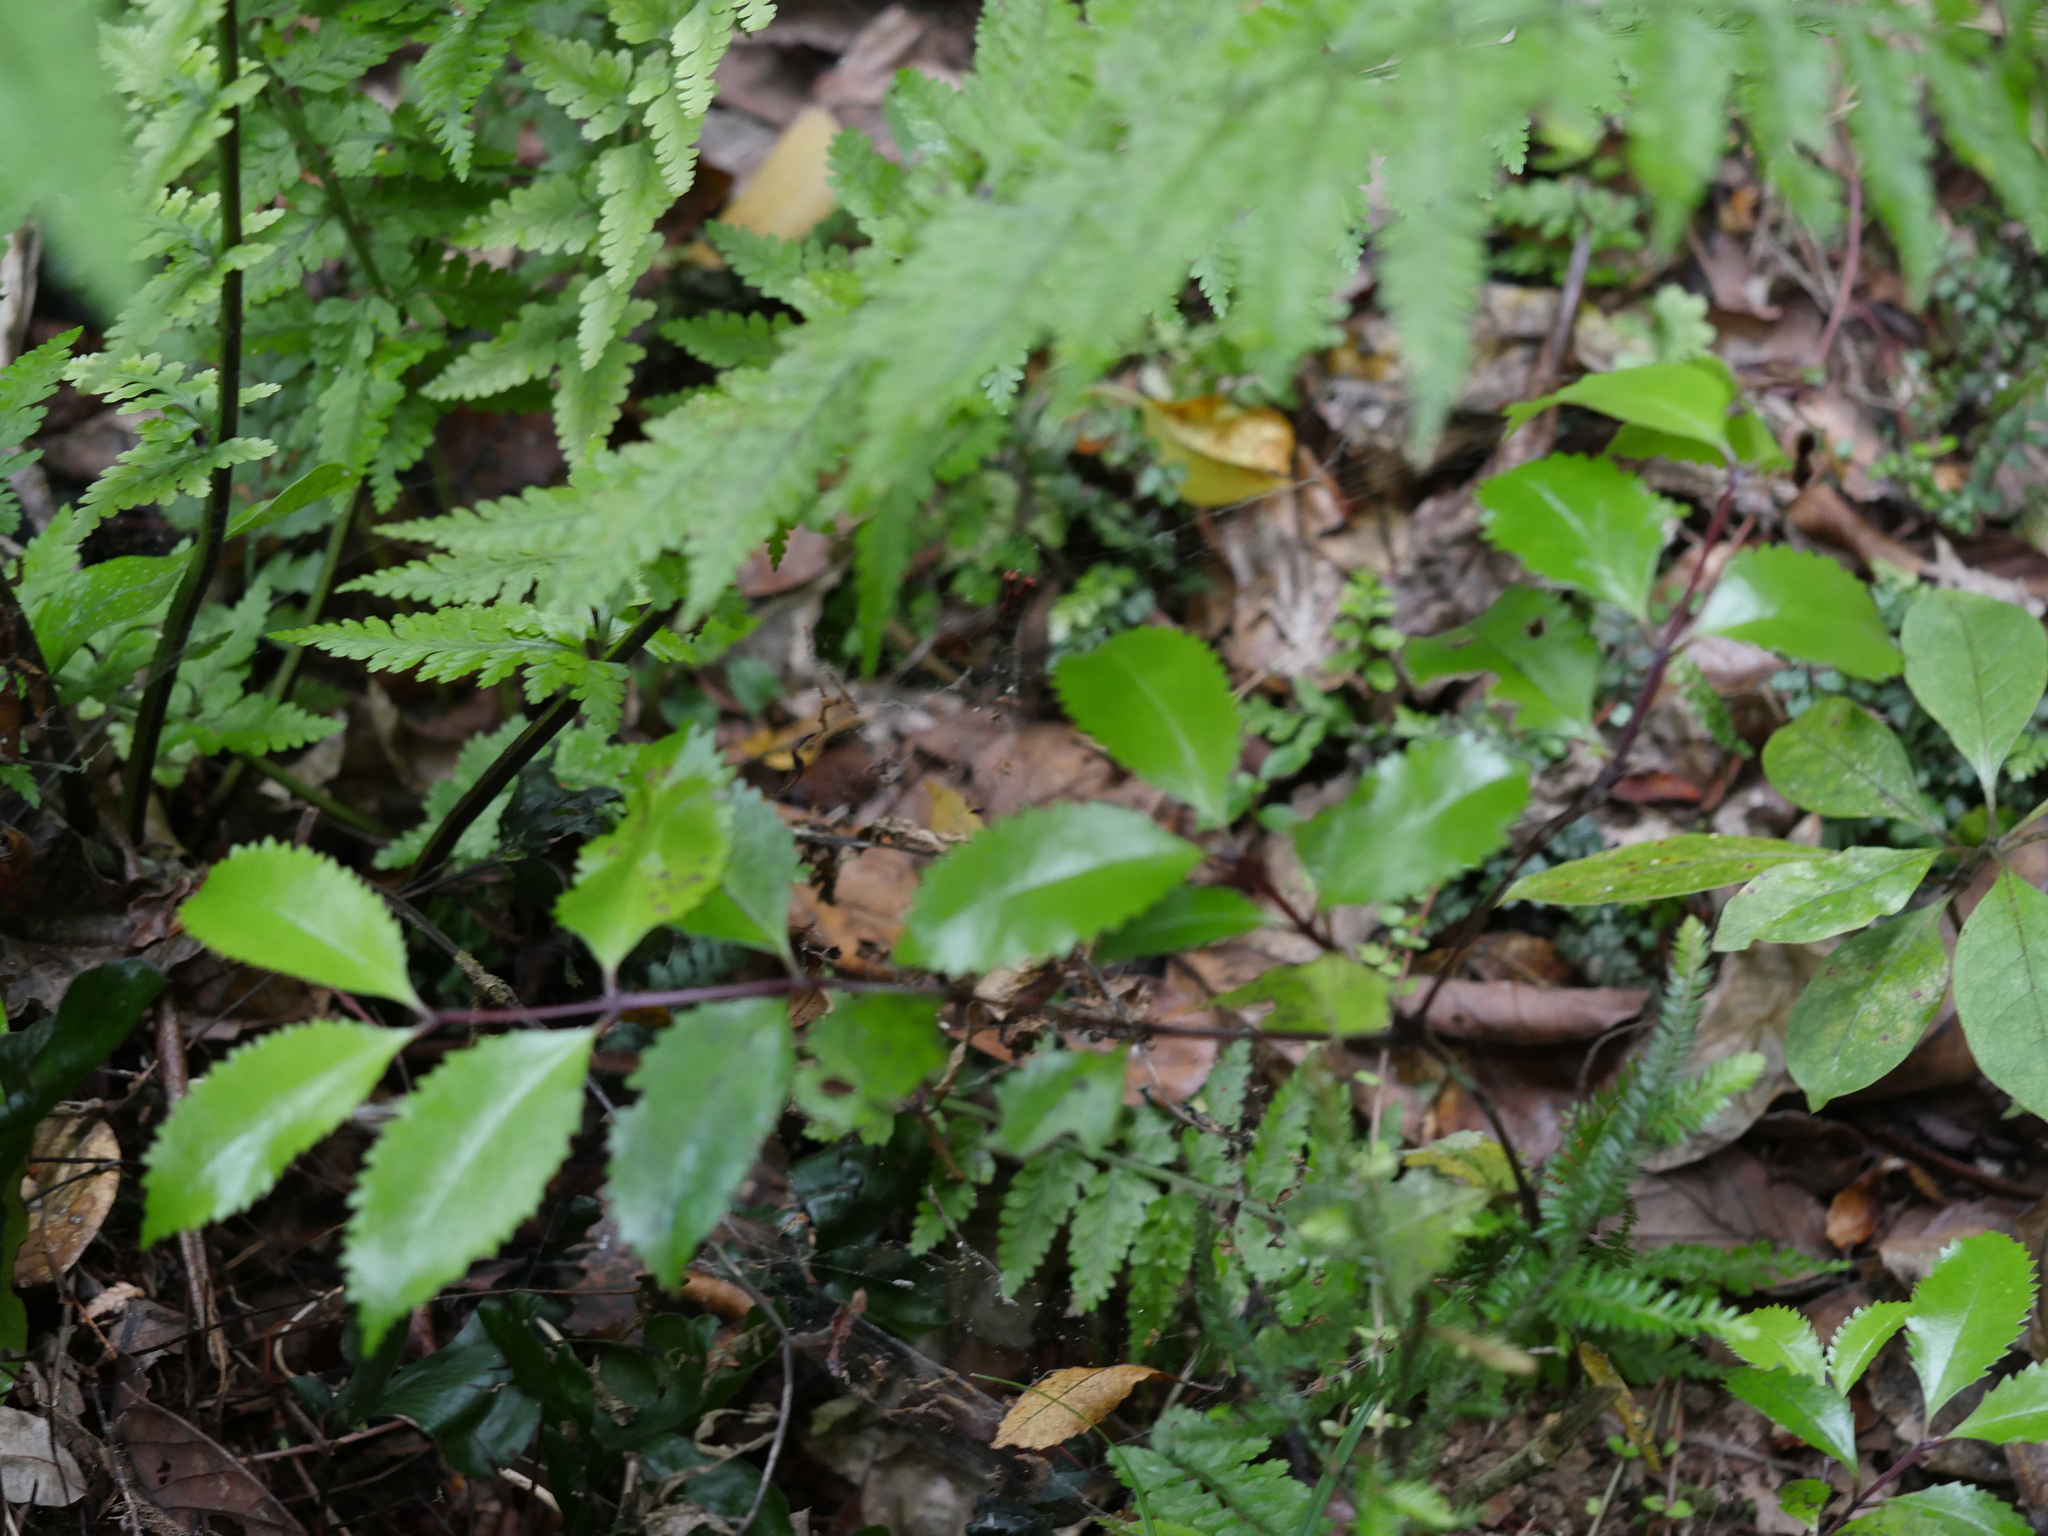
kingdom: Plantae
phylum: Tracheophyta
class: Magnoliopsida
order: Laurales
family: Atherospermataceae
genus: Laurelia
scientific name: Laurelia novae-zelandiae
